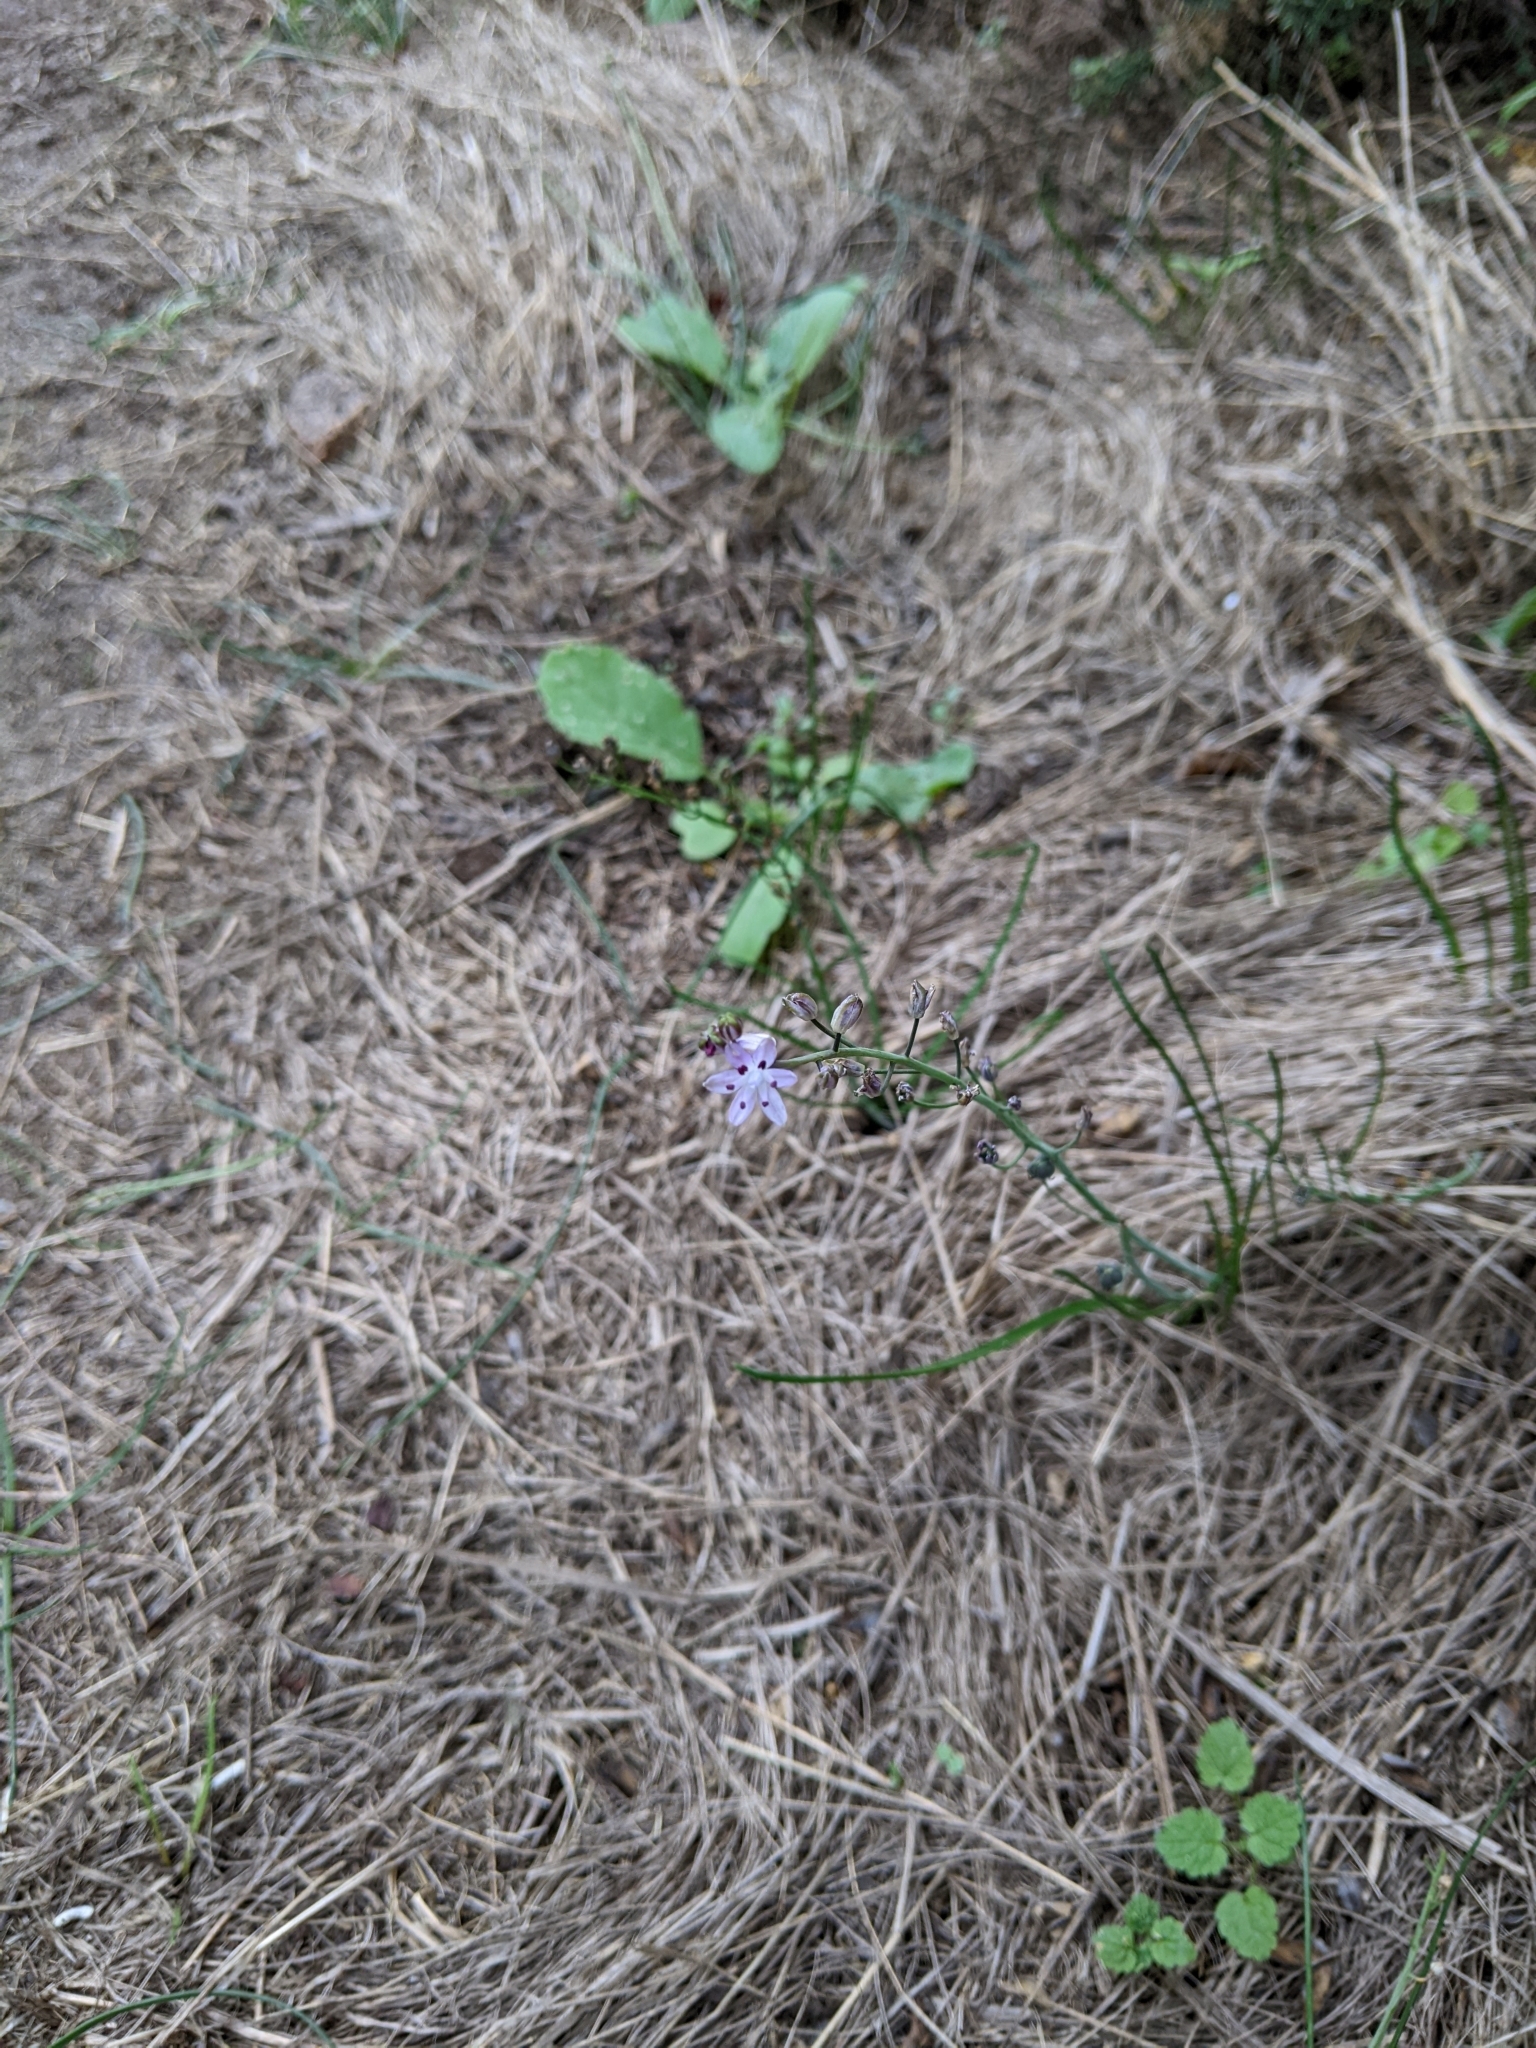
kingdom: Plantae
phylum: Tracheophyta
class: Liliopsida
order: Asparagales
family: Asparagaceae
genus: Prospero
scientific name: Prospero autumnale
